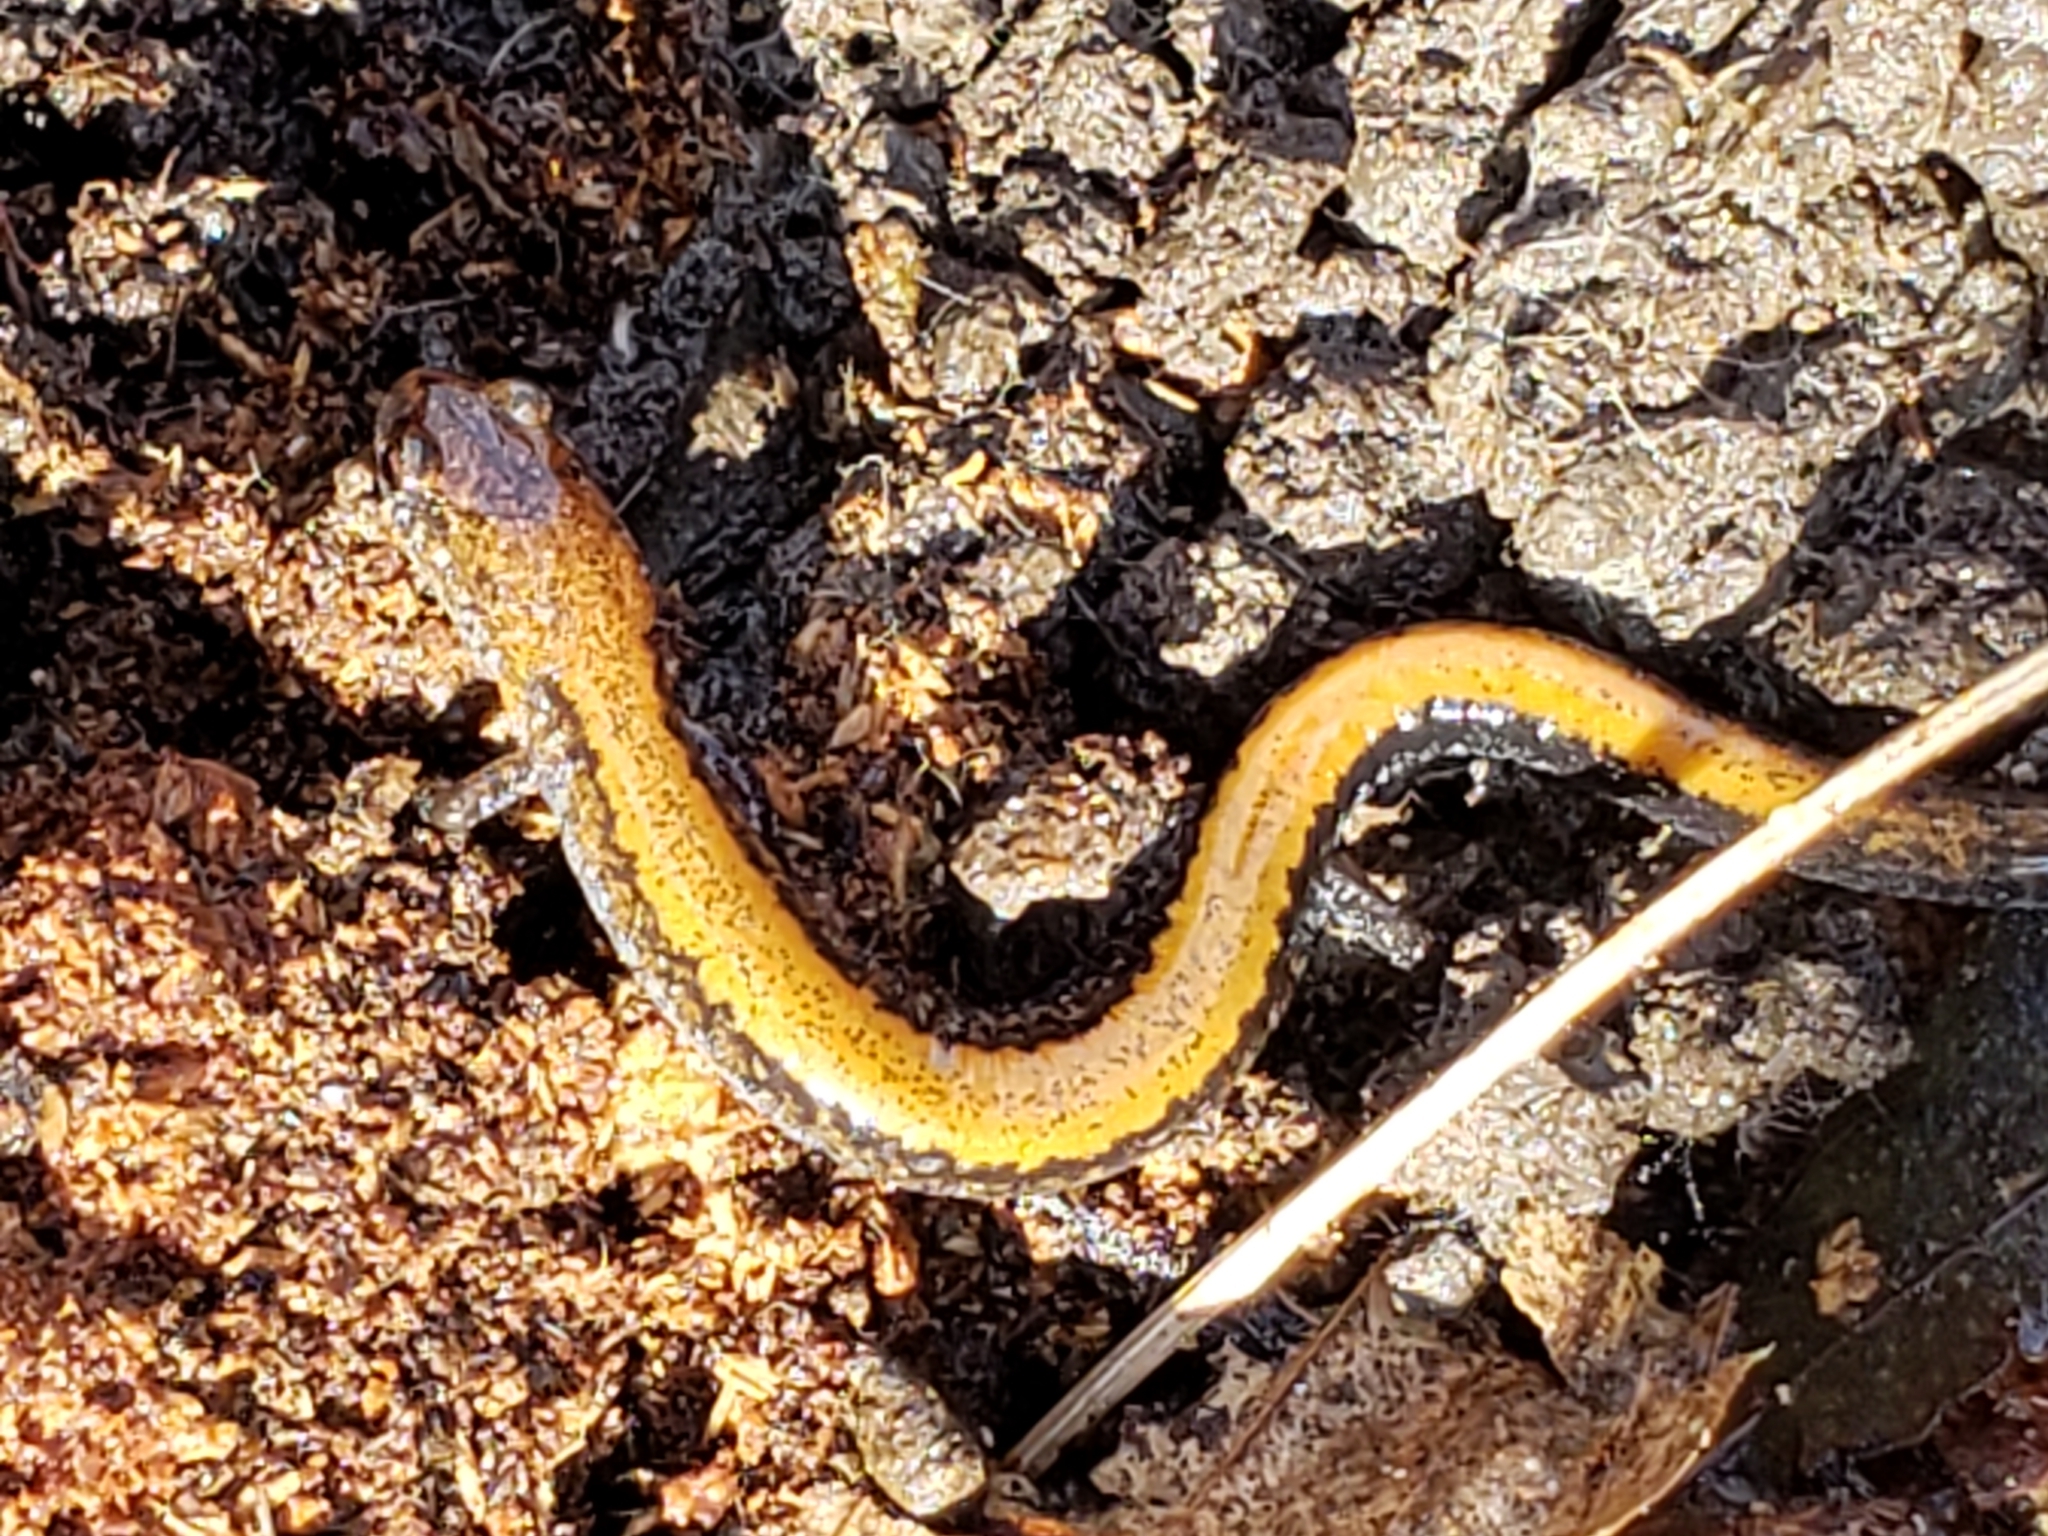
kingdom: Animalia
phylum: Chordata
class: Amphibia
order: Caudata
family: Plethodontidae
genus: Plethodon
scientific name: Plethodon cinereus
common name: Redback salamander
